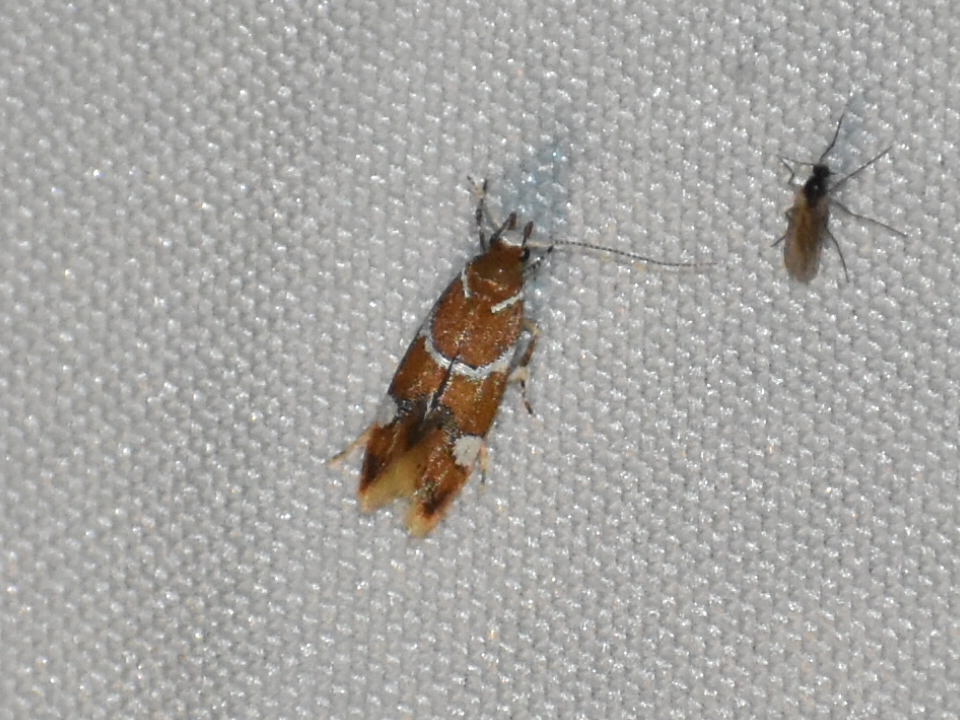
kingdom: Animalia
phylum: Arthropoda
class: Insecta
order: Lepidoptera
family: Oecophoridae
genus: Promalactis
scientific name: Promalactis suzukiella
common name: Moth
